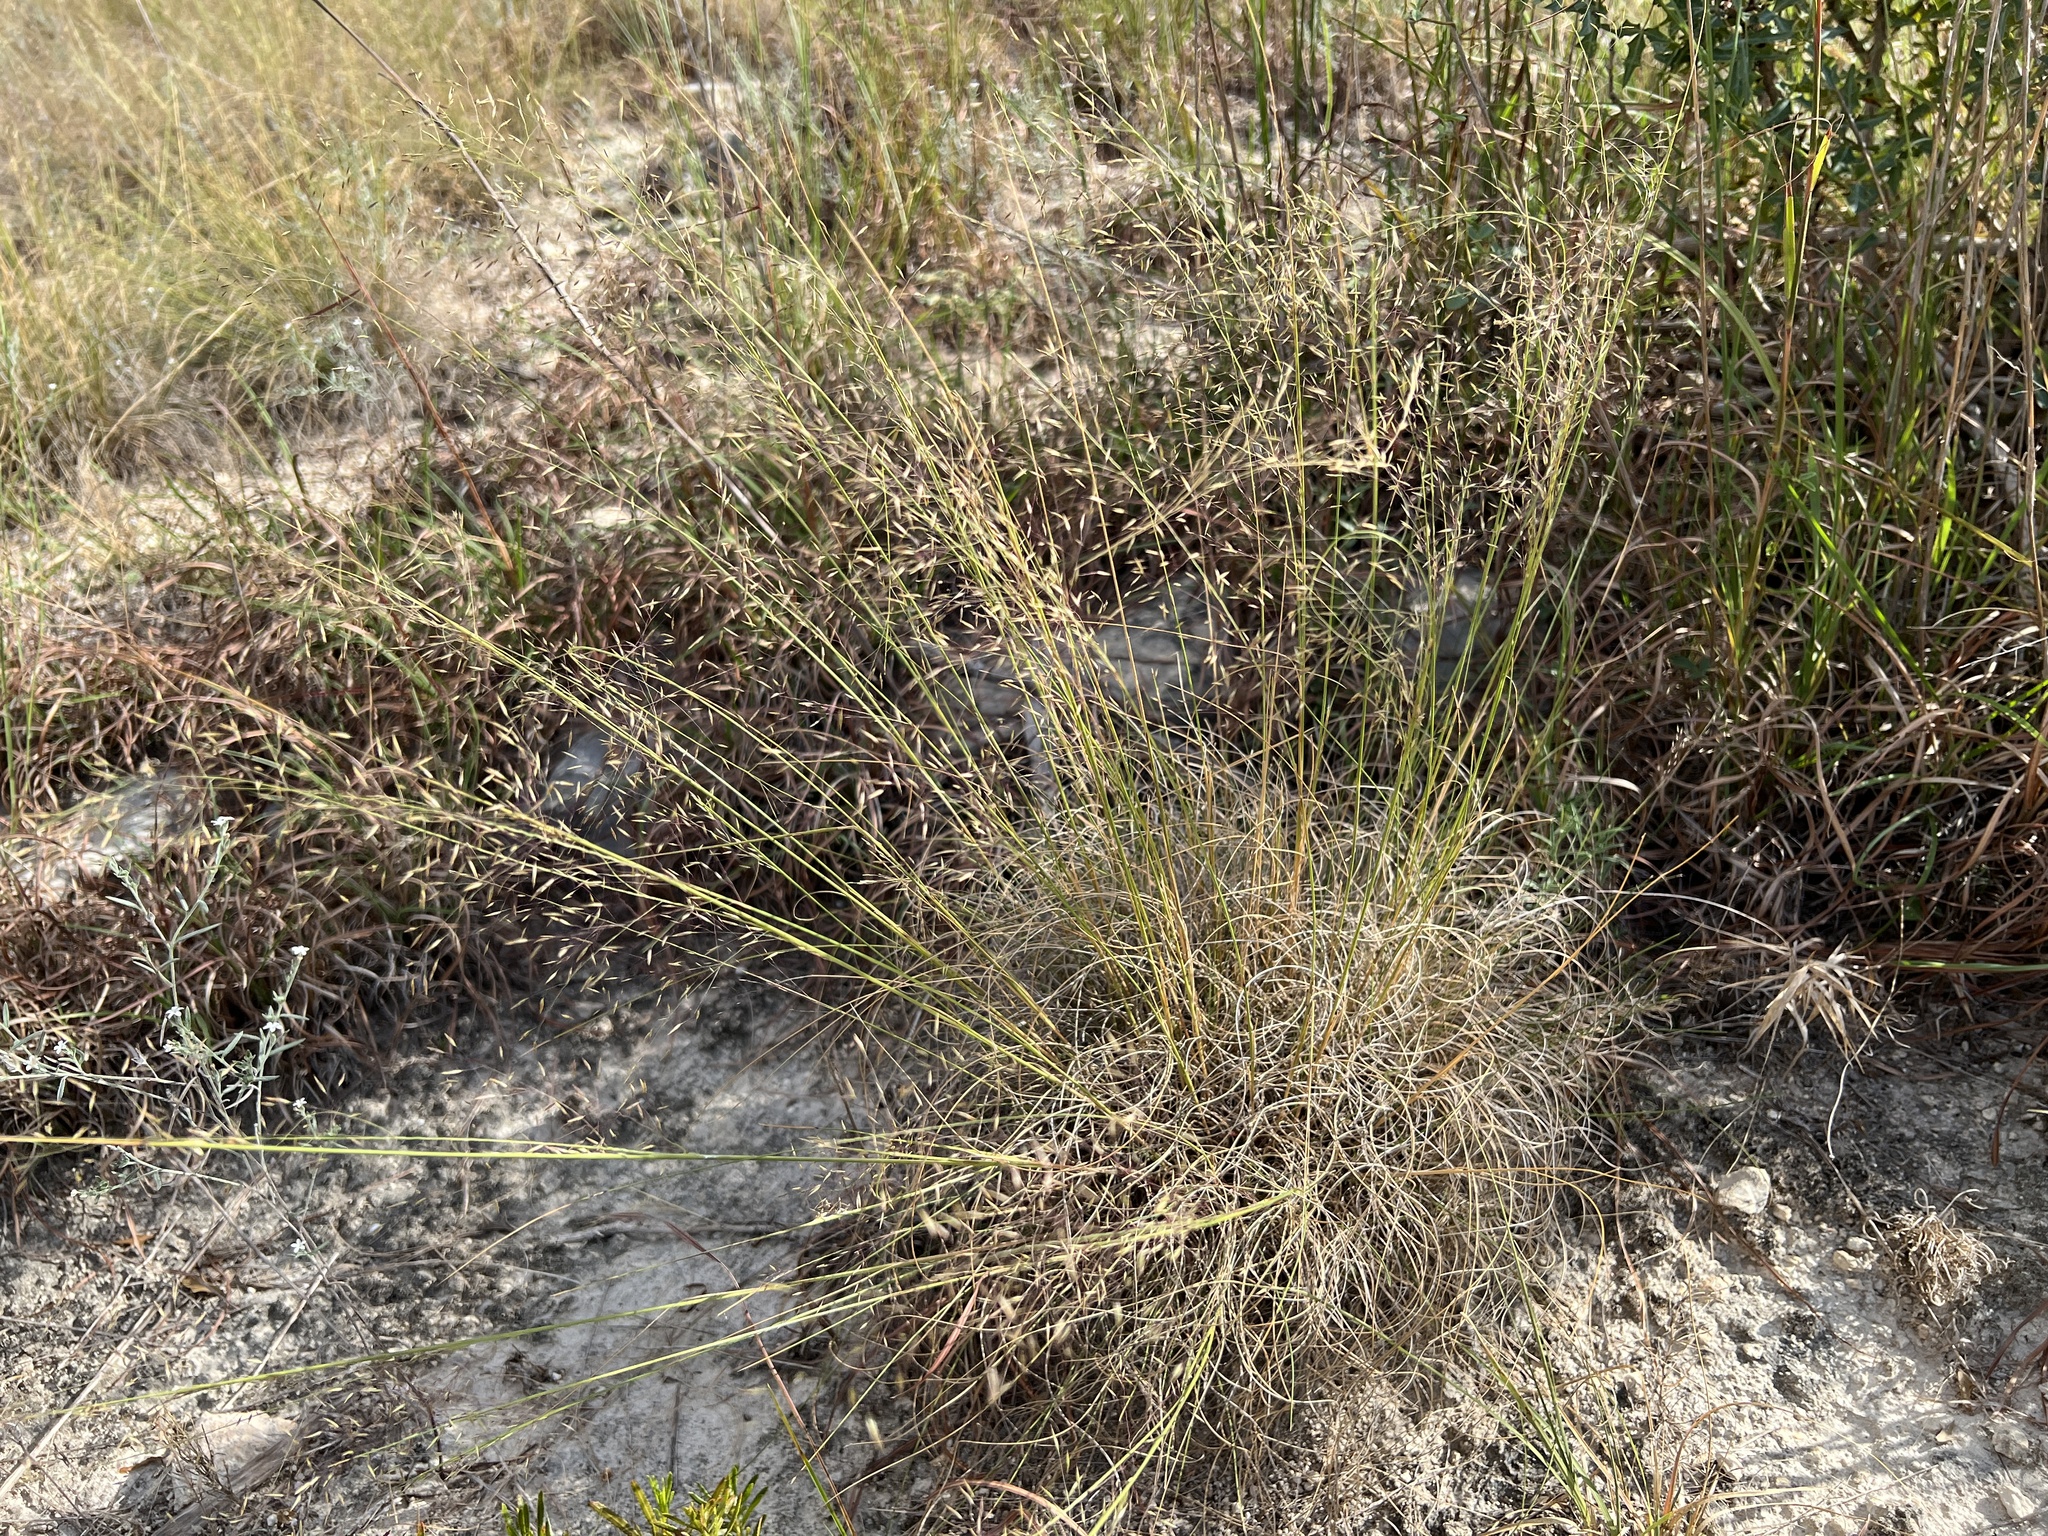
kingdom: Plantae
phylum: Tracheophyta
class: Liliopsida
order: Poales
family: Poaceae
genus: Muhlenbergia
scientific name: Muhlenbergia reverchonii
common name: Seep muhly
